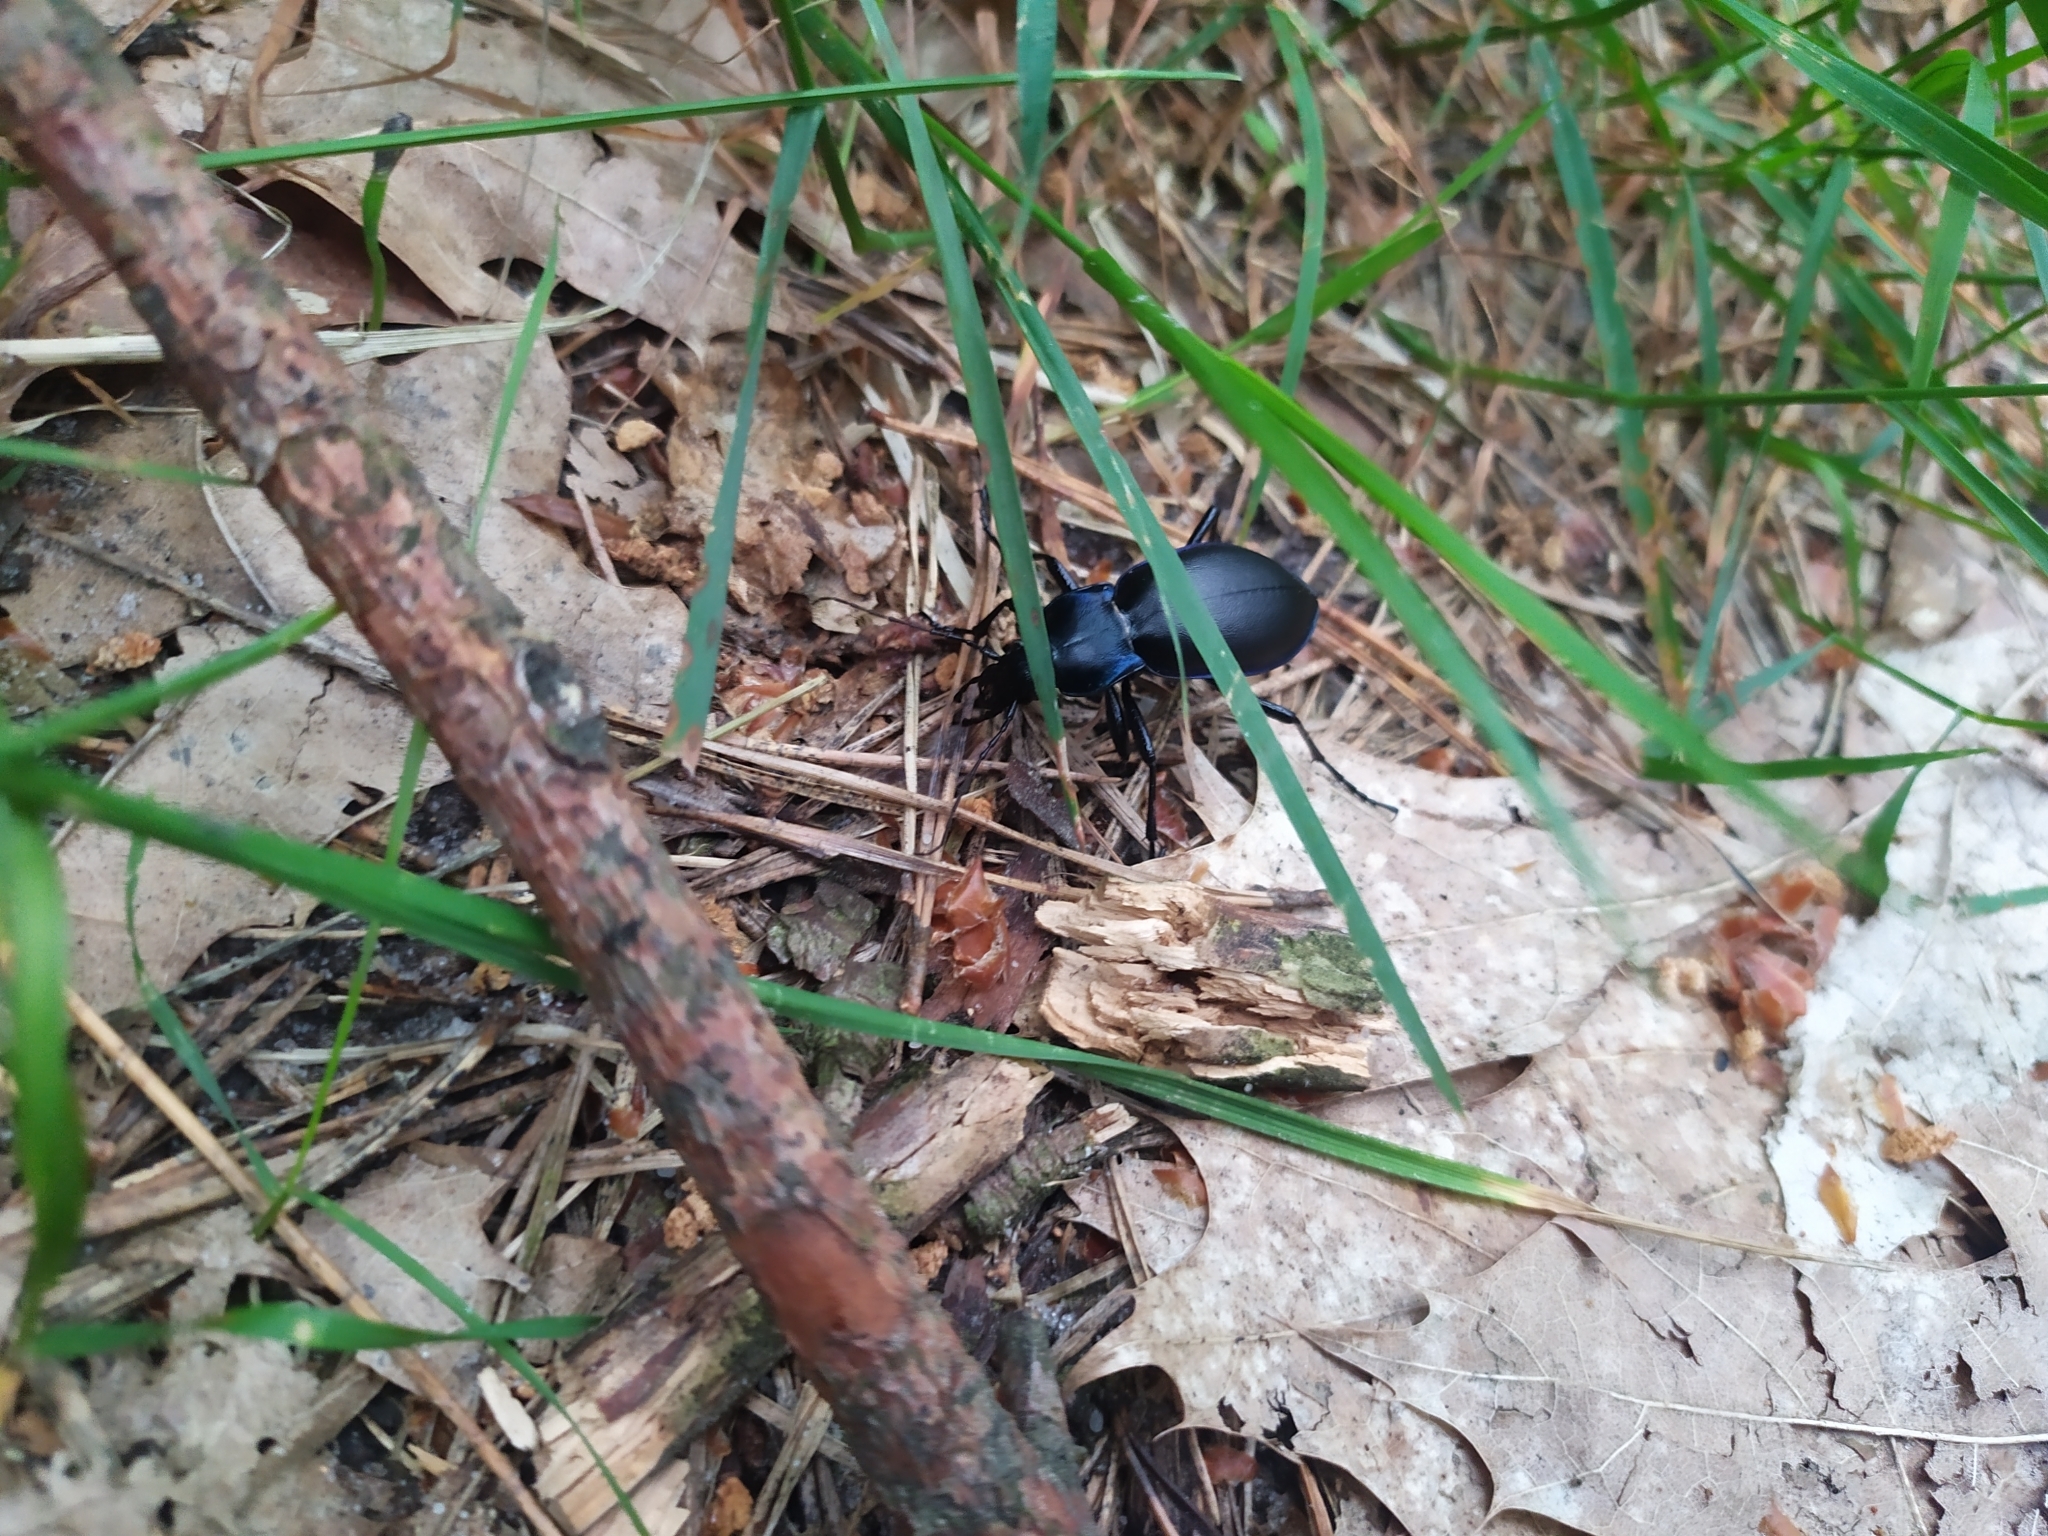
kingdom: Animalia
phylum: Arthropoda
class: Insecta
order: Coleoptera
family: Carabidae
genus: Carabus
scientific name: Carabus violaceus
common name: Violet ground beetle
